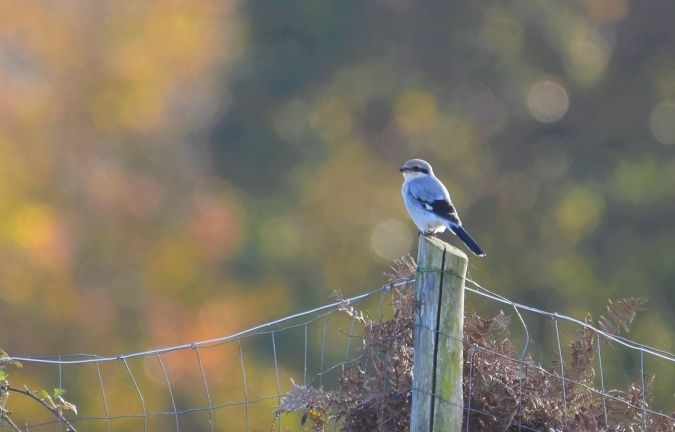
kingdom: Animalia
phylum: Chordata
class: Aves
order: Passeriformes
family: Laniidae
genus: Lanius
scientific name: Lanius excubitor
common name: Great grey shrike
